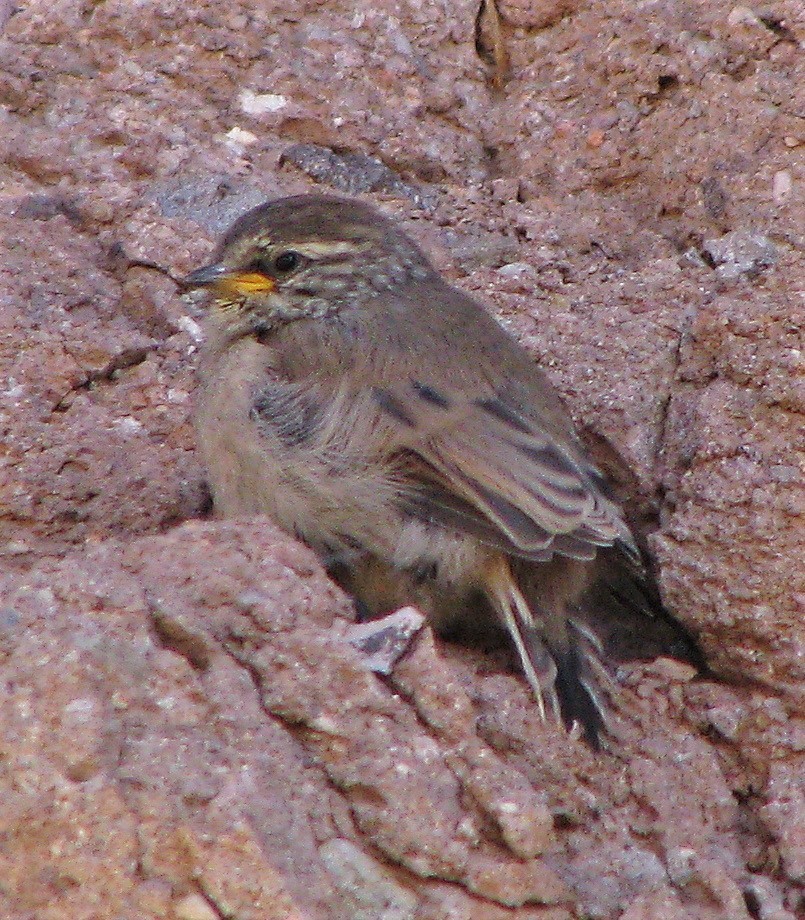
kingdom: Animalia
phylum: Chordata
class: Aves
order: Passeriformes
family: Furnariidae
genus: Leptasthenura
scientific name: Leptasthenura aegithaloides
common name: Plain-mantled tit-spinetail
